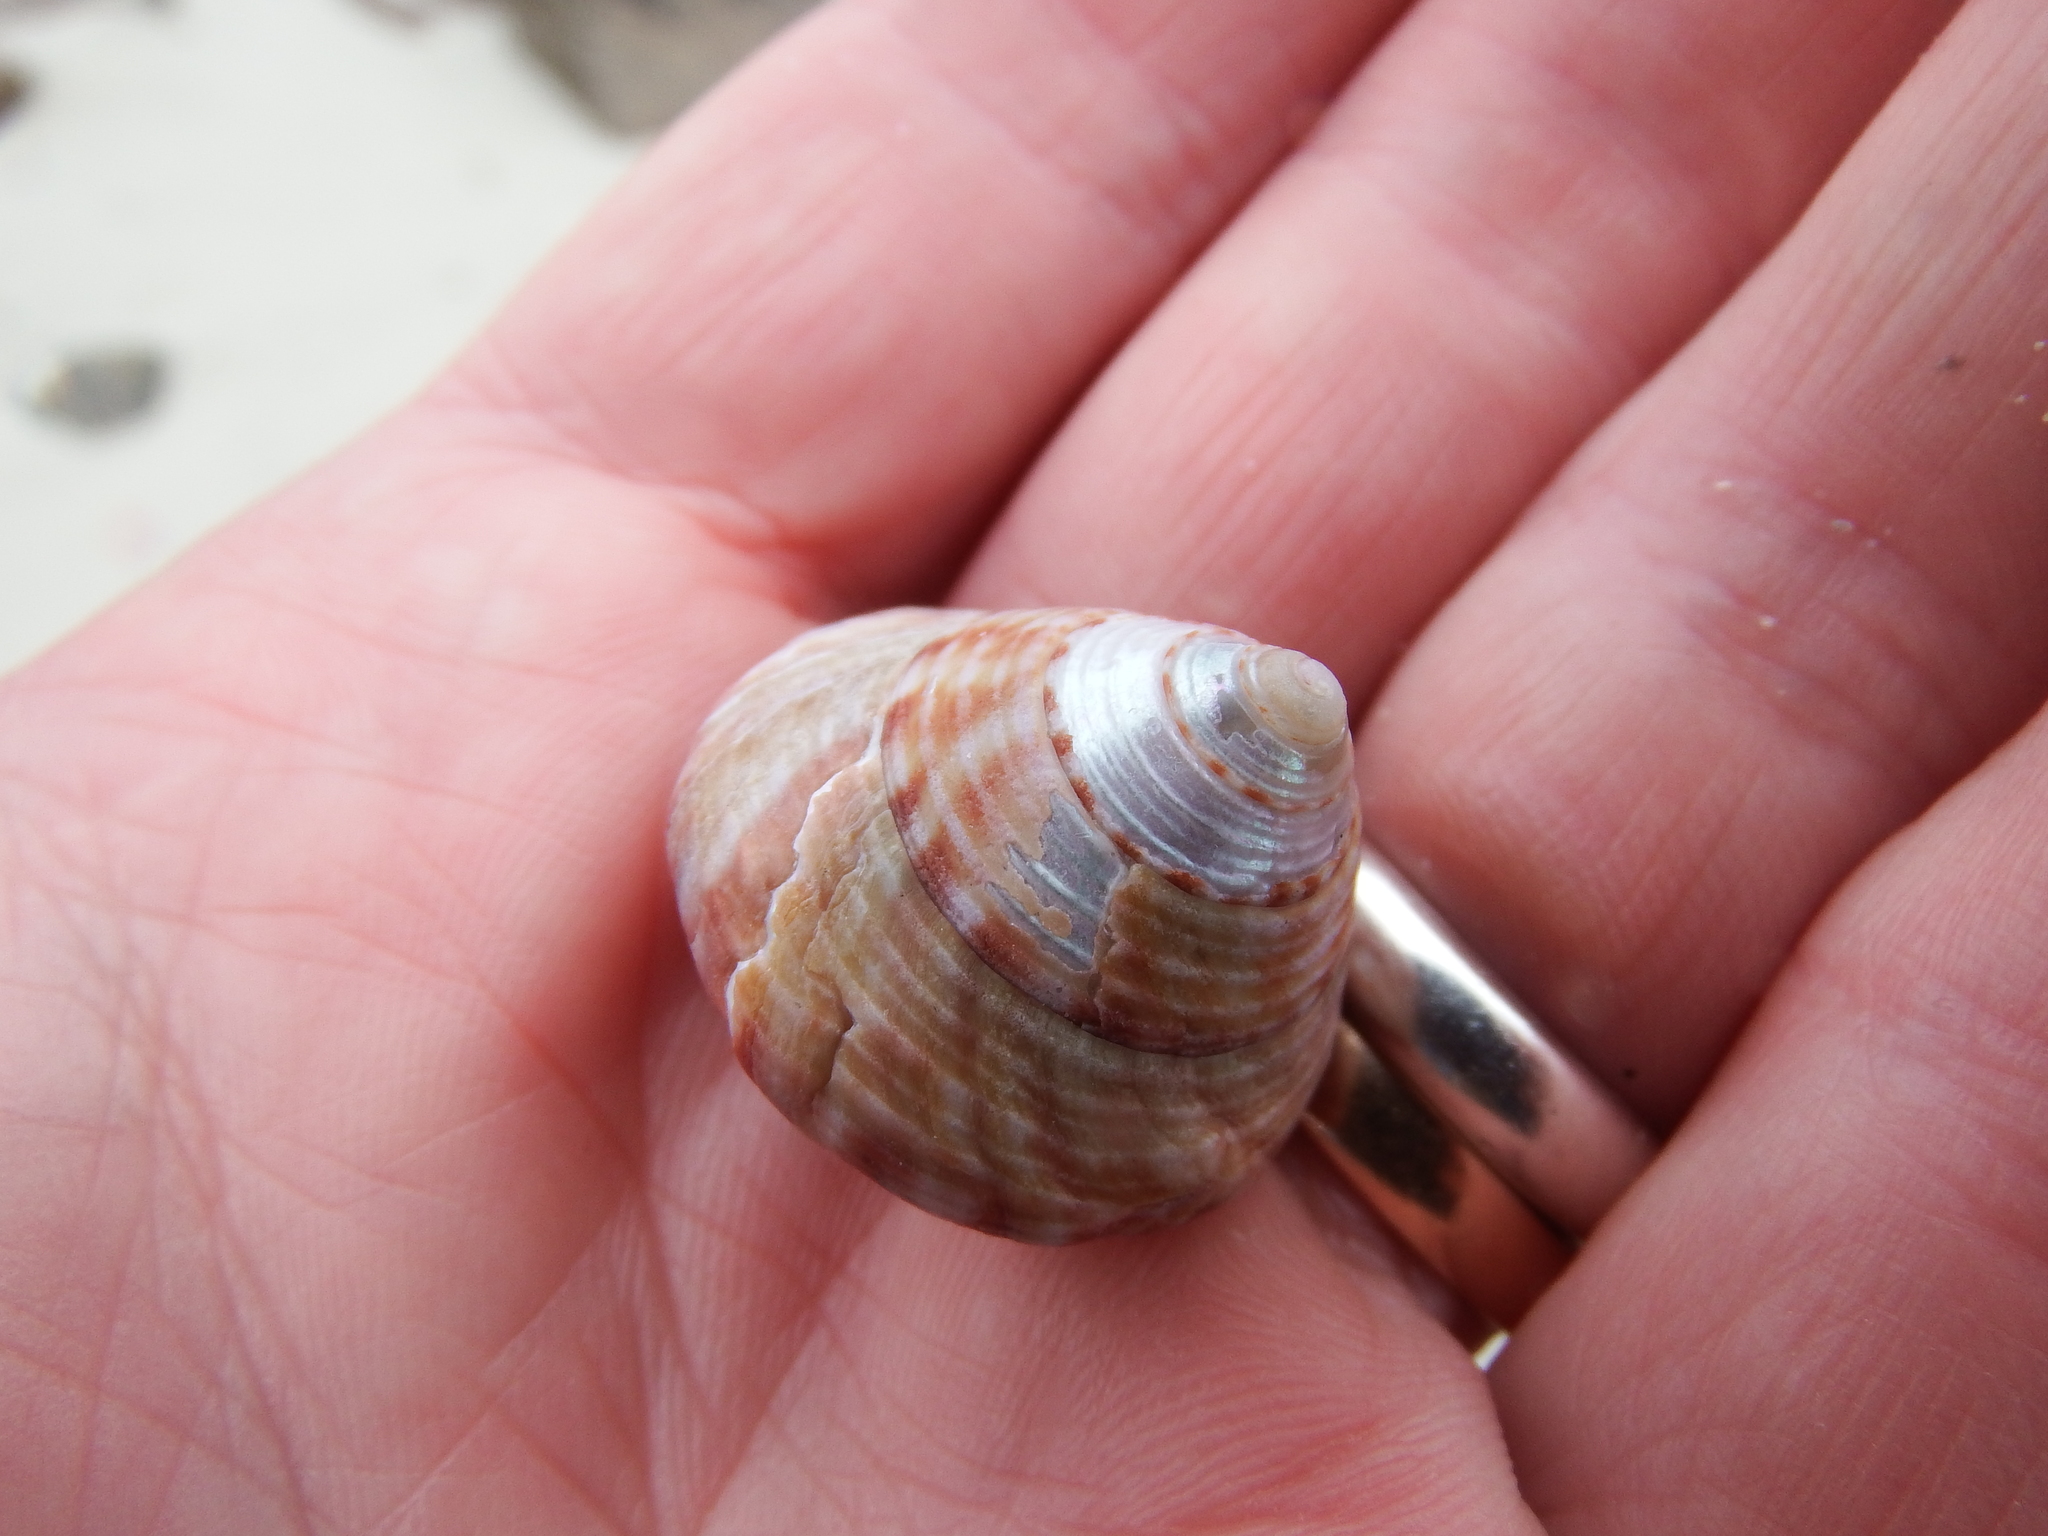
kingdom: Animalia
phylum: Mollusca
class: Gastropoda
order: Trochida
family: Calliostomatidae
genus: Calliostoma
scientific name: Calliostoma zizyphinum
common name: Painted top shell
